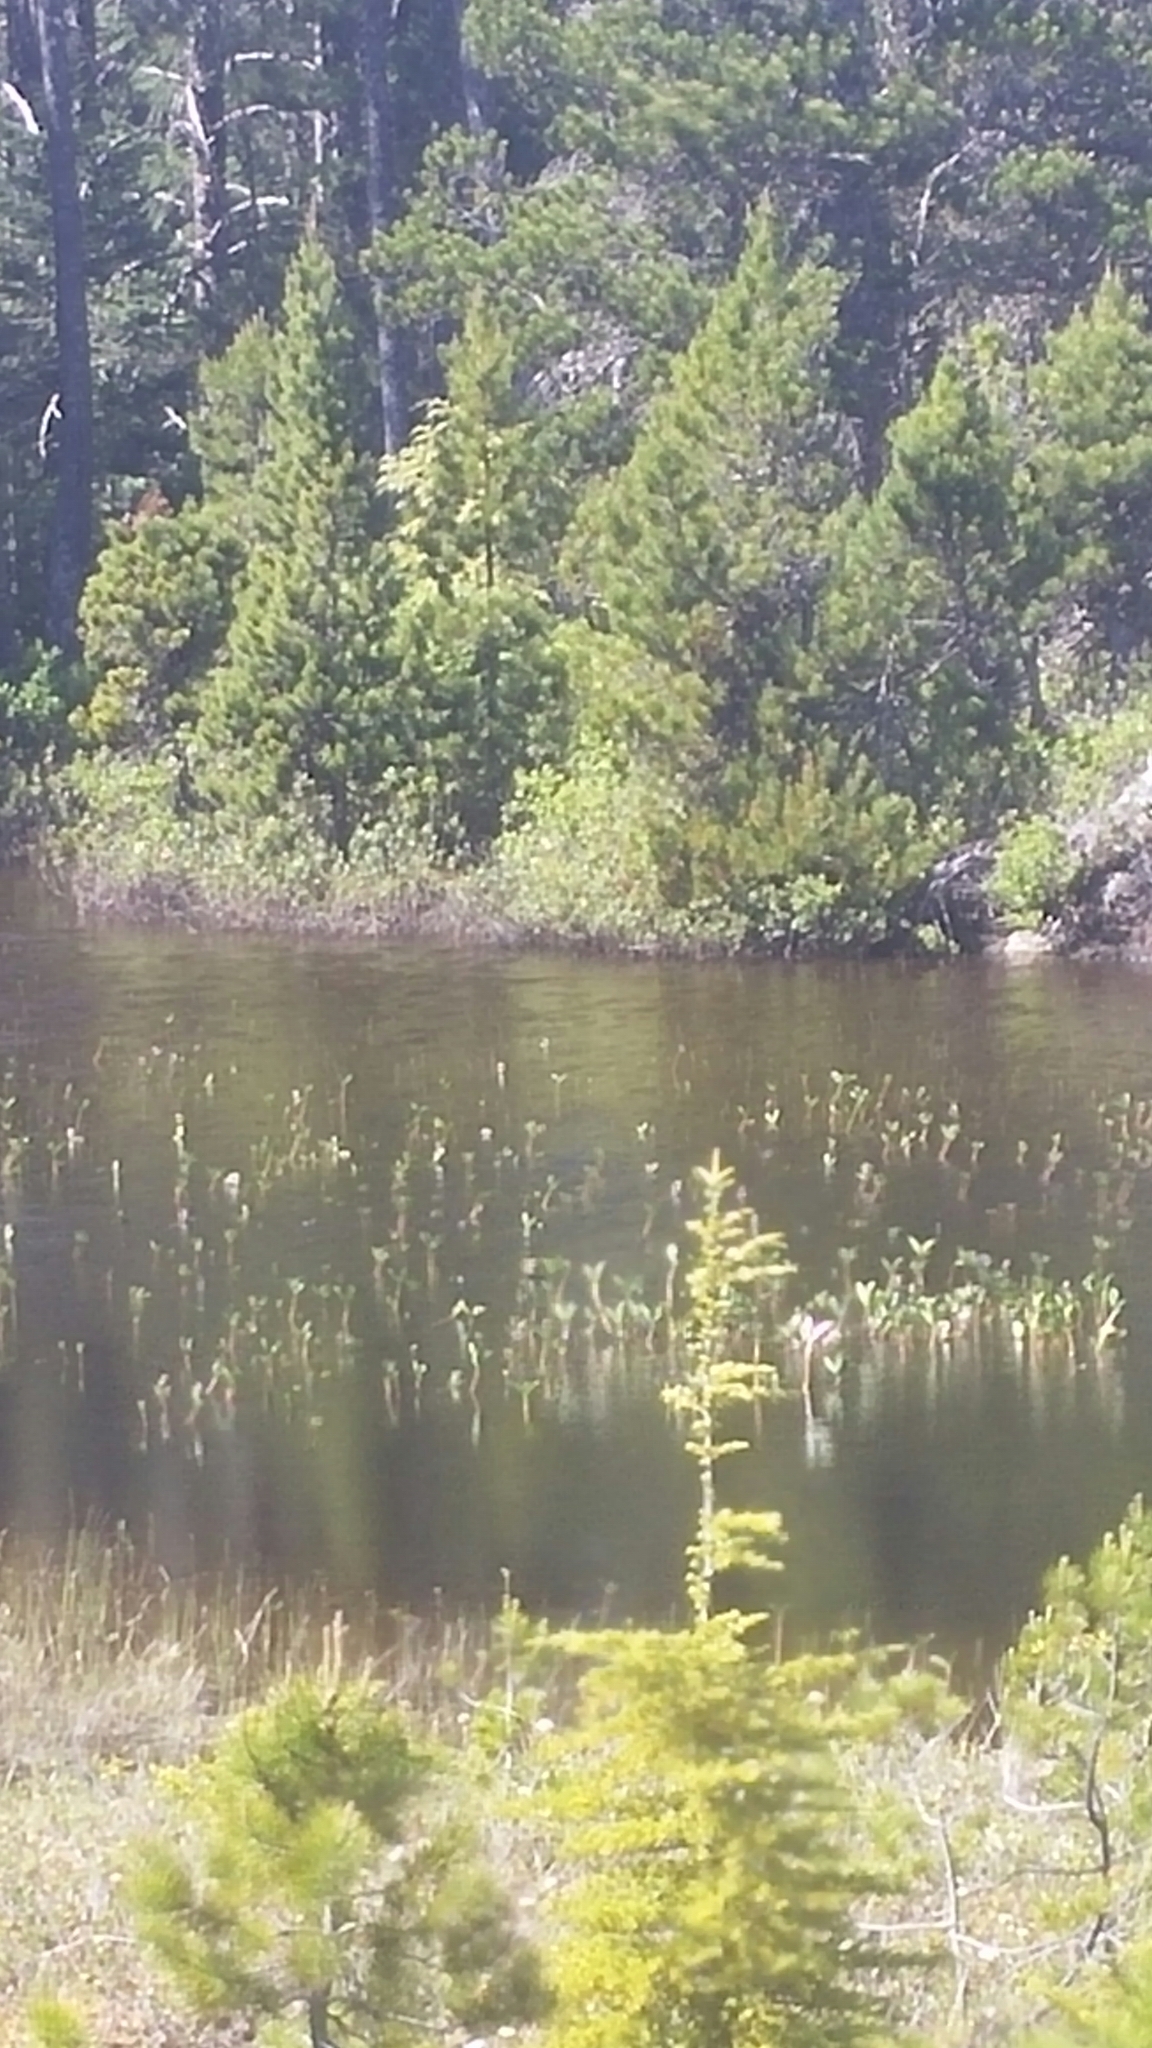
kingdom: Plantae
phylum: Tracheophyta
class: Magnoliopsida
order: Asterales
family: Menyanthaceae
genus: Menyanthes
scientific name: Menyanthes trifoliata
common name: Bogbean
